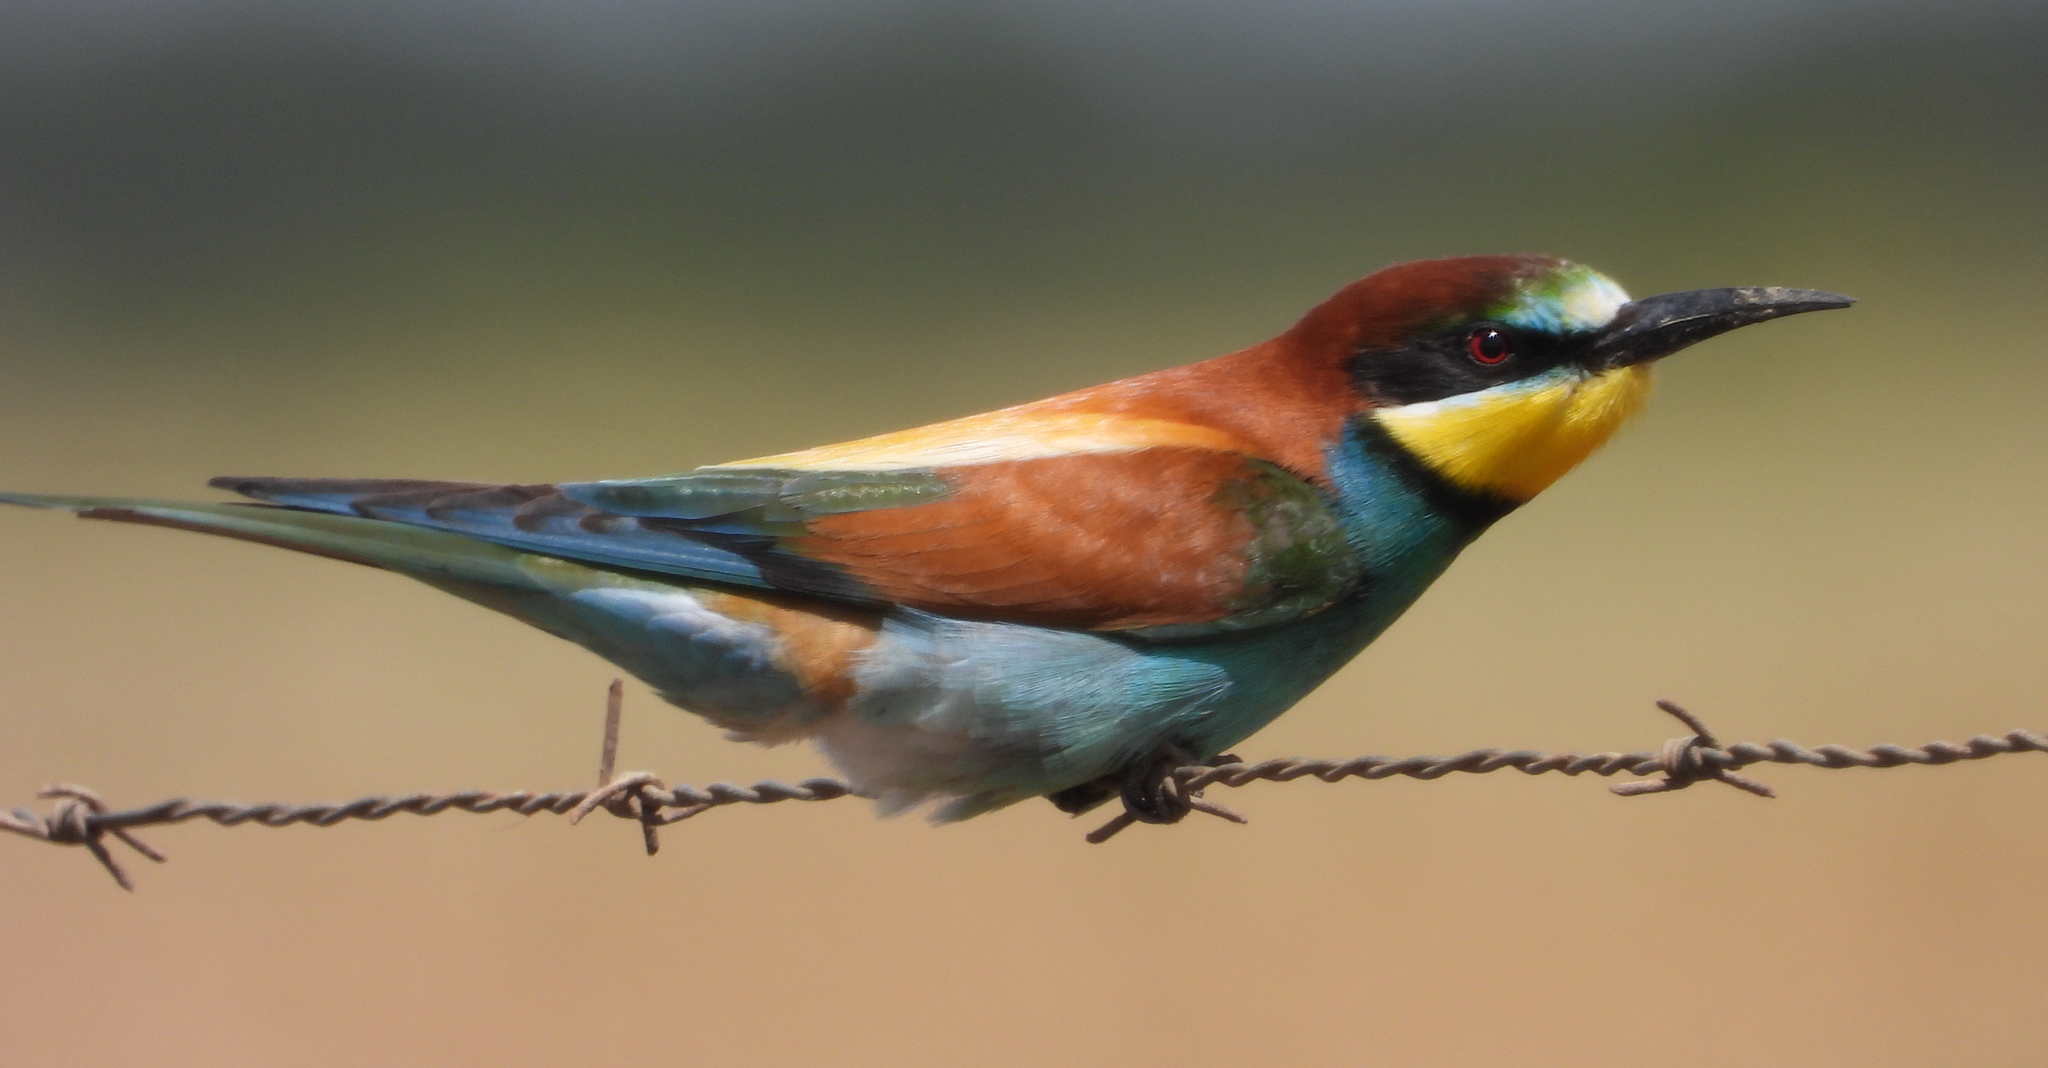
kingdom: Animalia
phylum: Chordata
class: Aves
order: Coraciiformes
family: Meropidae
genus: Merops
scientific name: Merops apiaster
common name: European bee-eater
